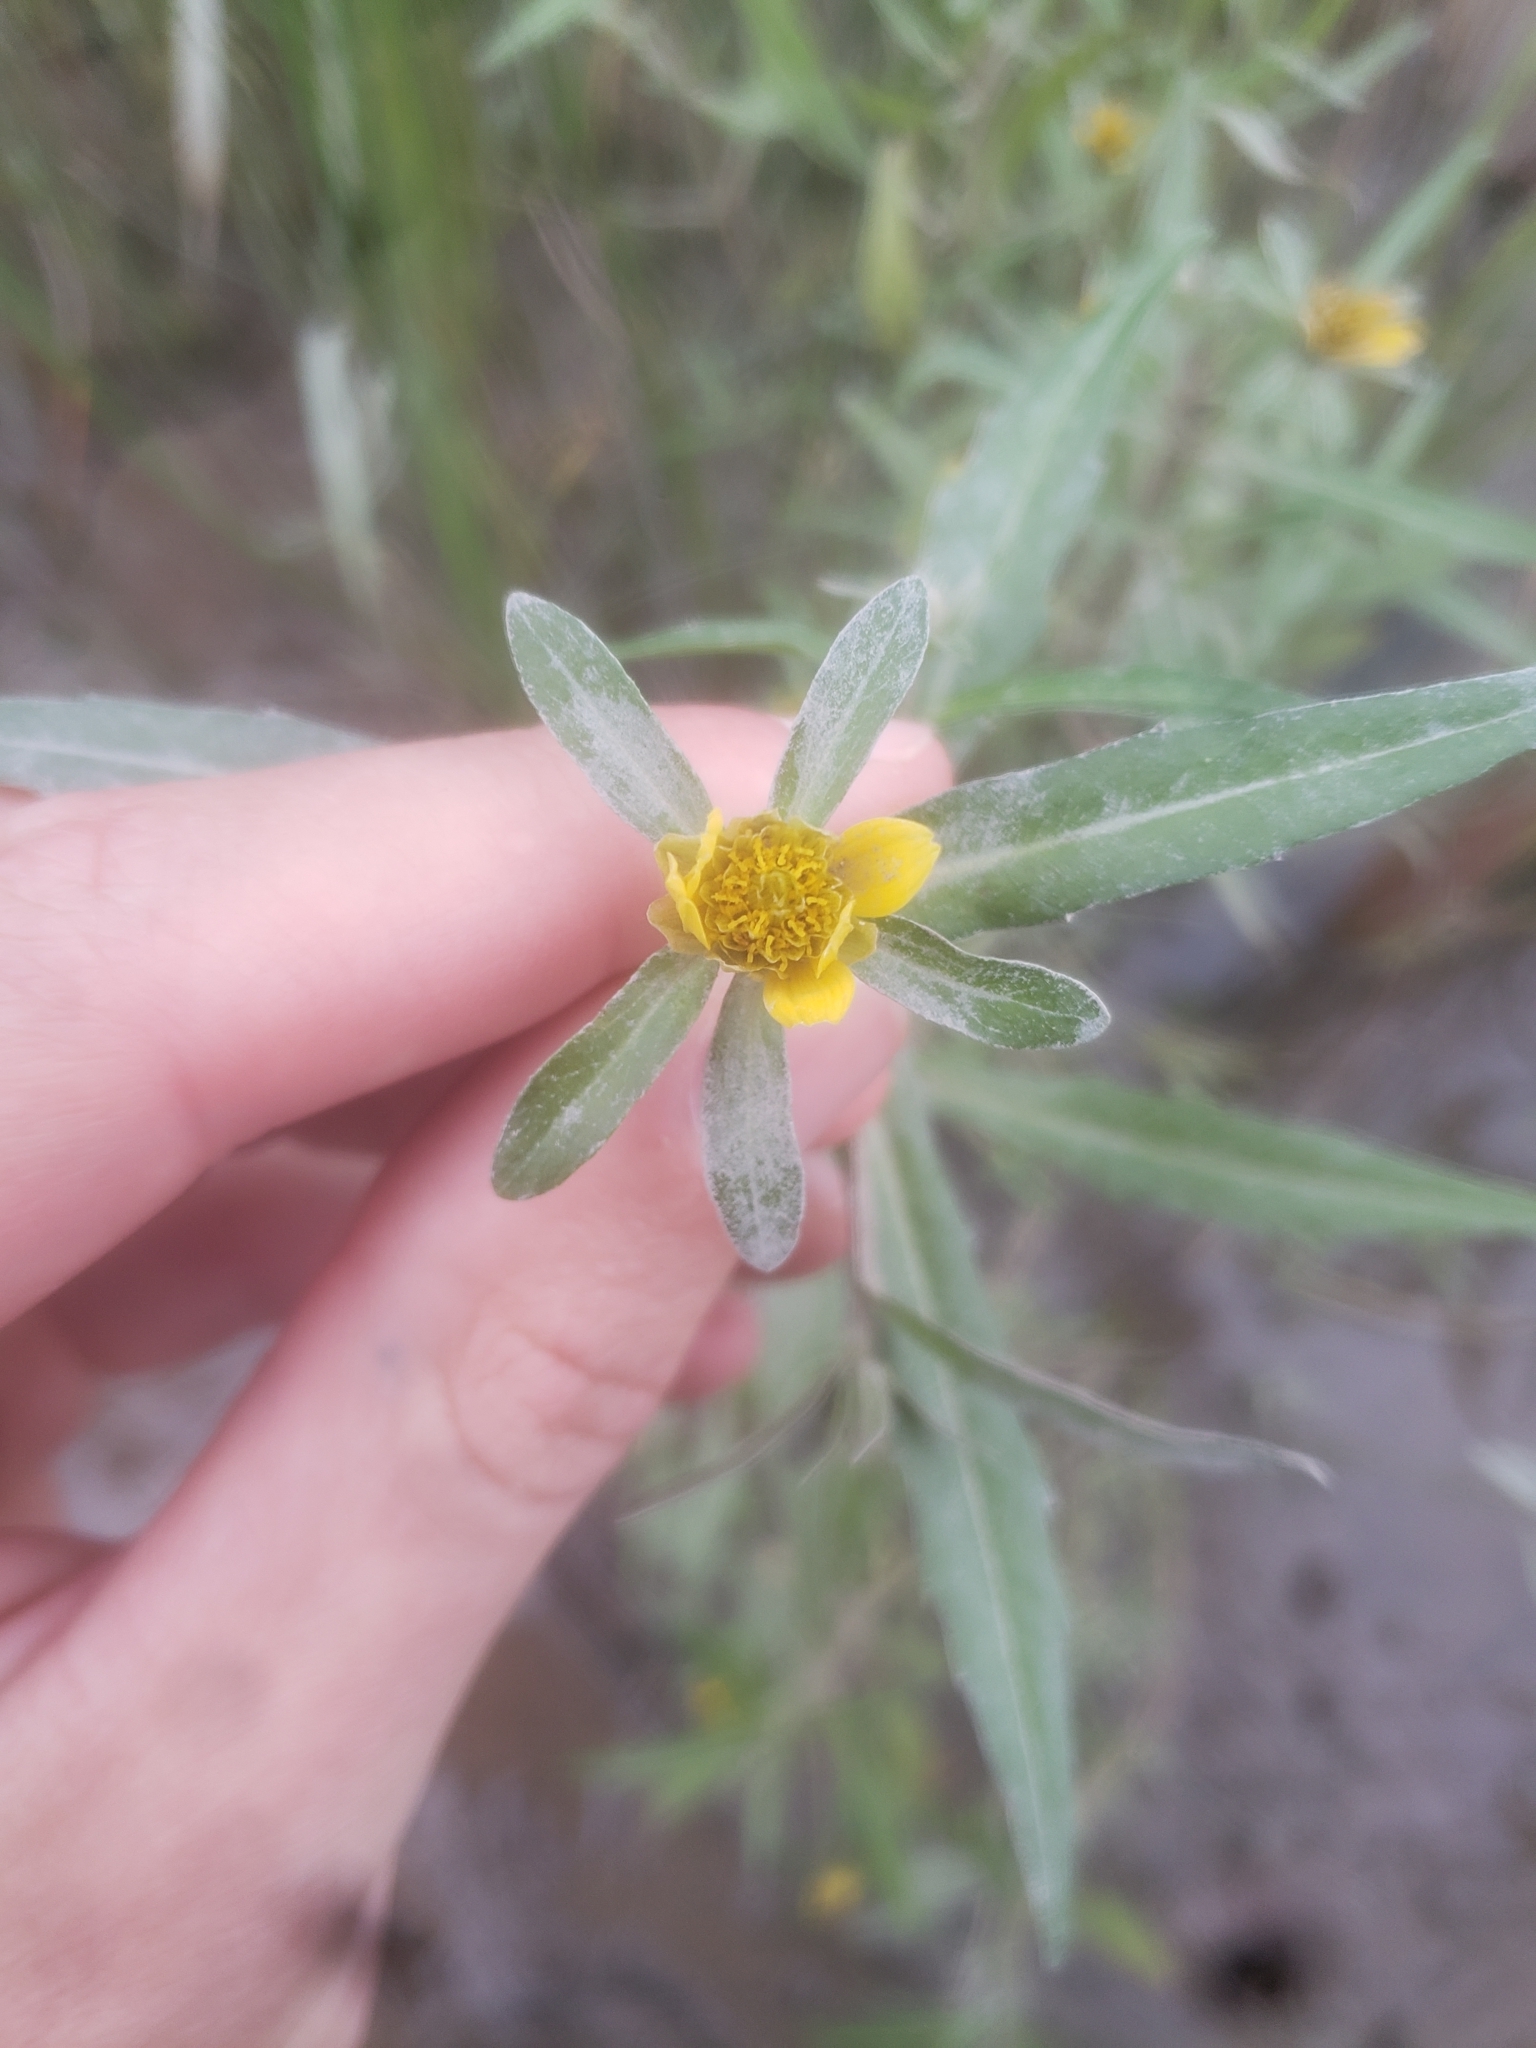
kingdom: Plantae
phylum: Tracheophyta
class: Magnoliopsida
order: Asterales
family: Asteraceae
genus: Bidens
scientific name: Bidens hyperborea
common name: Coastal beggarticks
